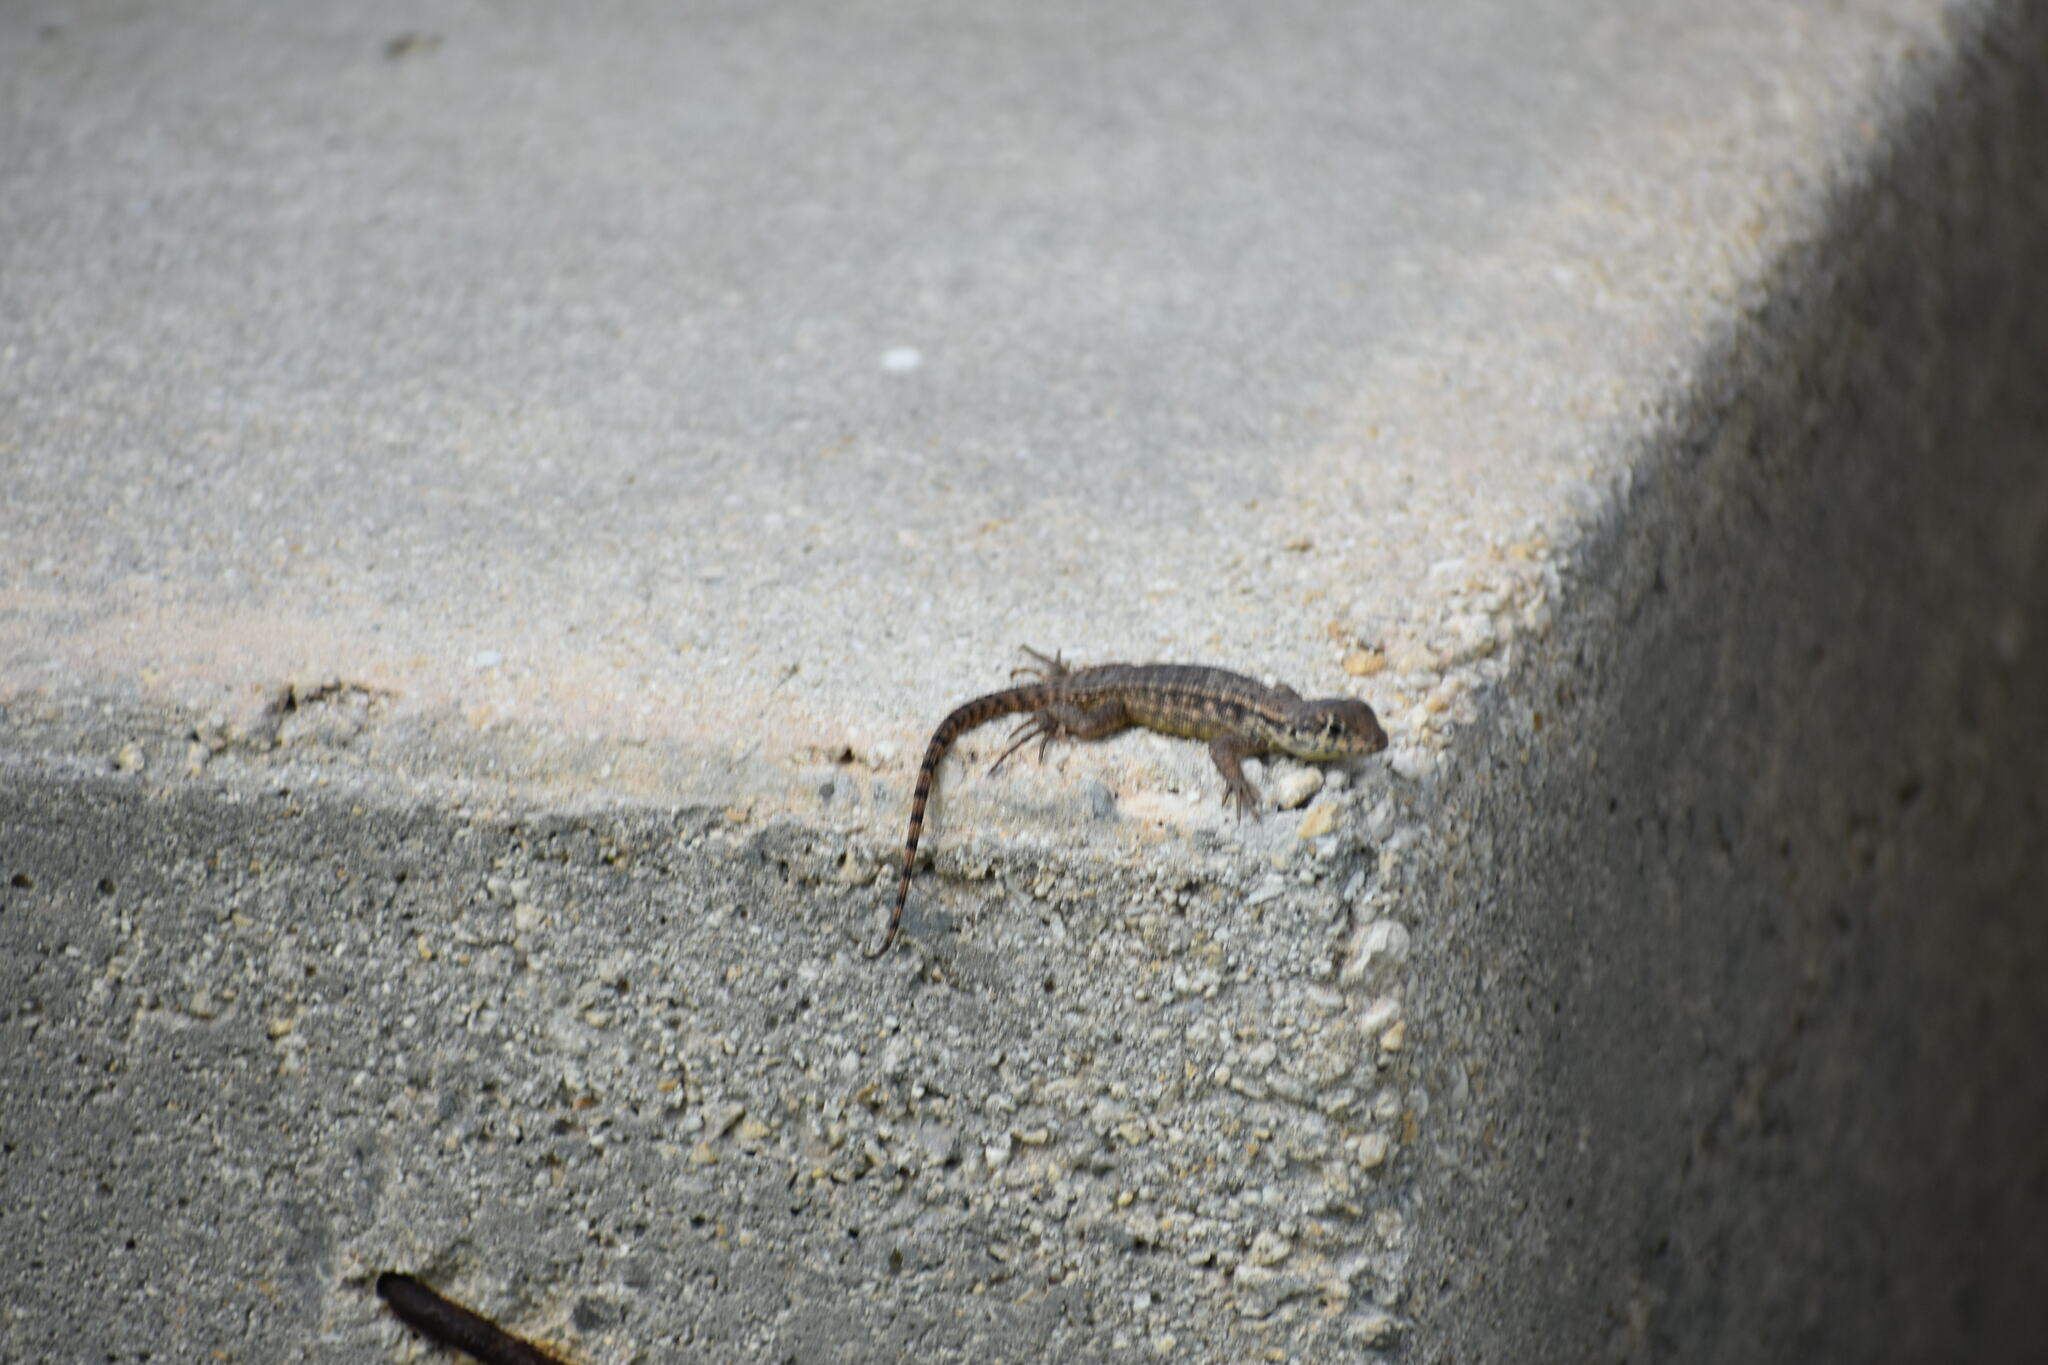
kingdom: Animalia
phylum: Chordata
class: Squamata
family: Leiocephalidae
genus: Leiocephalus
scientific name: Leiocephalus carinatus
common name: Northern curly-tailed lizard
